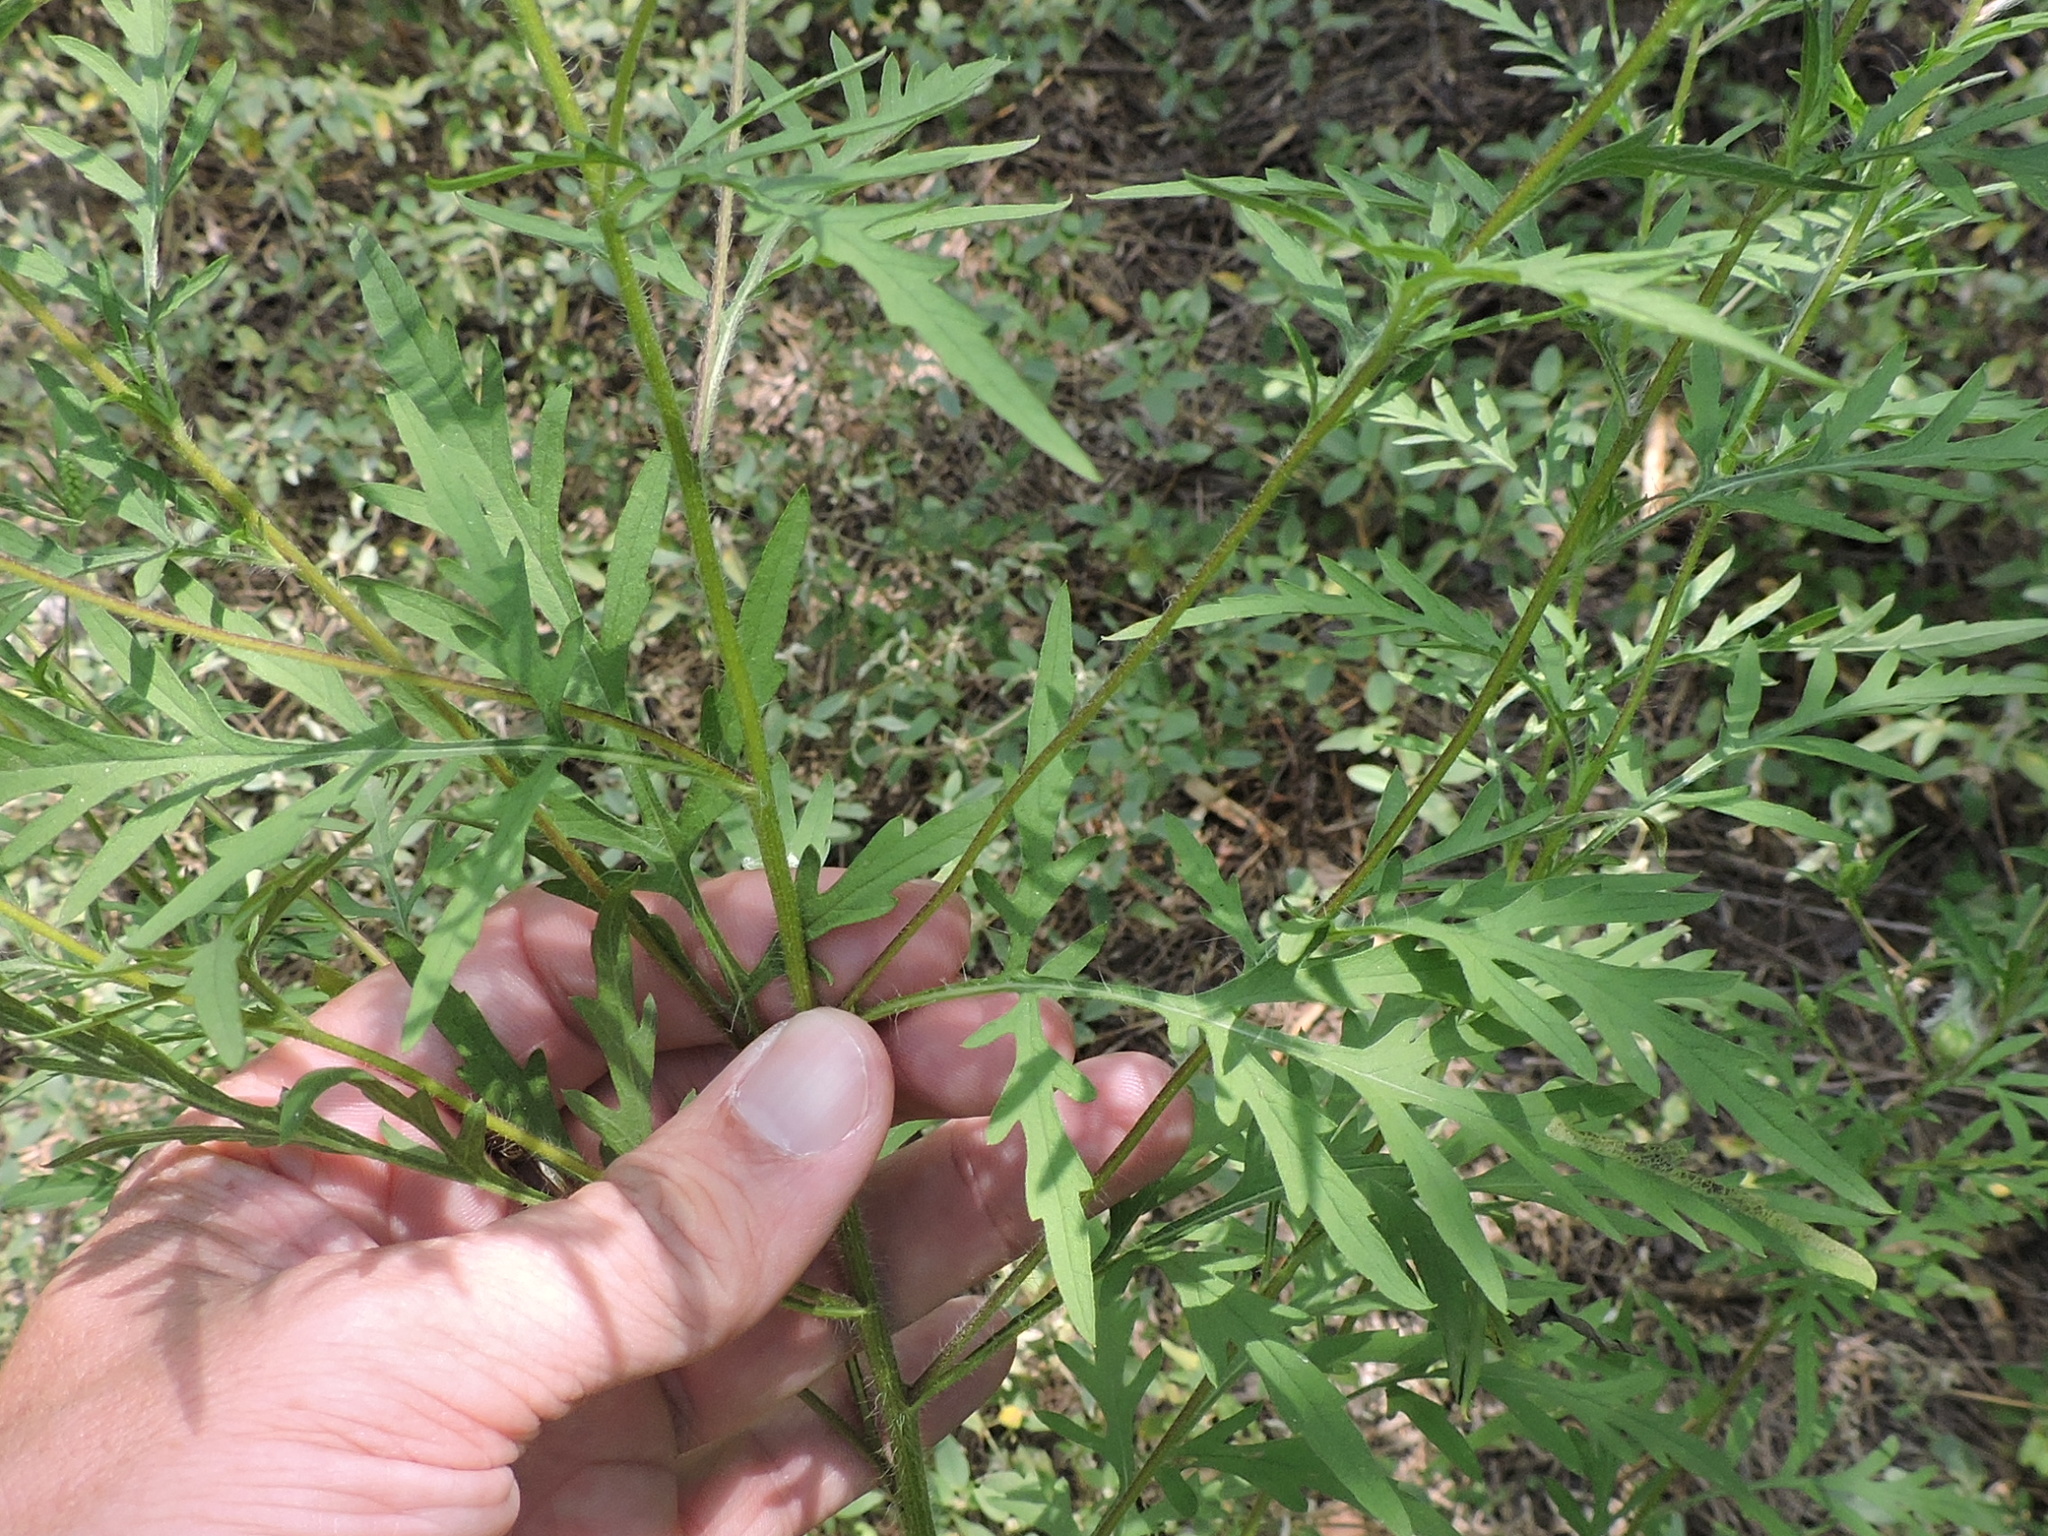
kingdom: Plantae
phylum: Tracheophyta
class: Magnoliopsida
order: Asterales
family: Asteraceae
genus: Ambrosia
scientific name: Ambrosia artemisiifolia
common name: Annual ragweed
